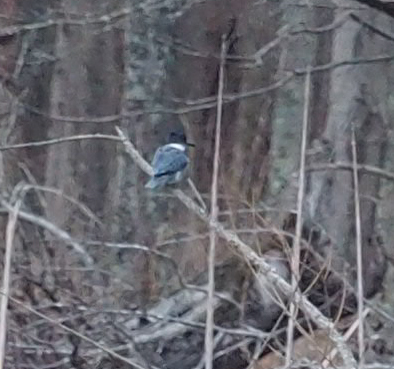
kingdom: Animalia
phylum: Chordata
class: Aves
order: Coraciiformes
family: Alcedinidae
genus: Megaceryle
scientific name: Megaceryle alcyon
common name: Belted kingfisher
